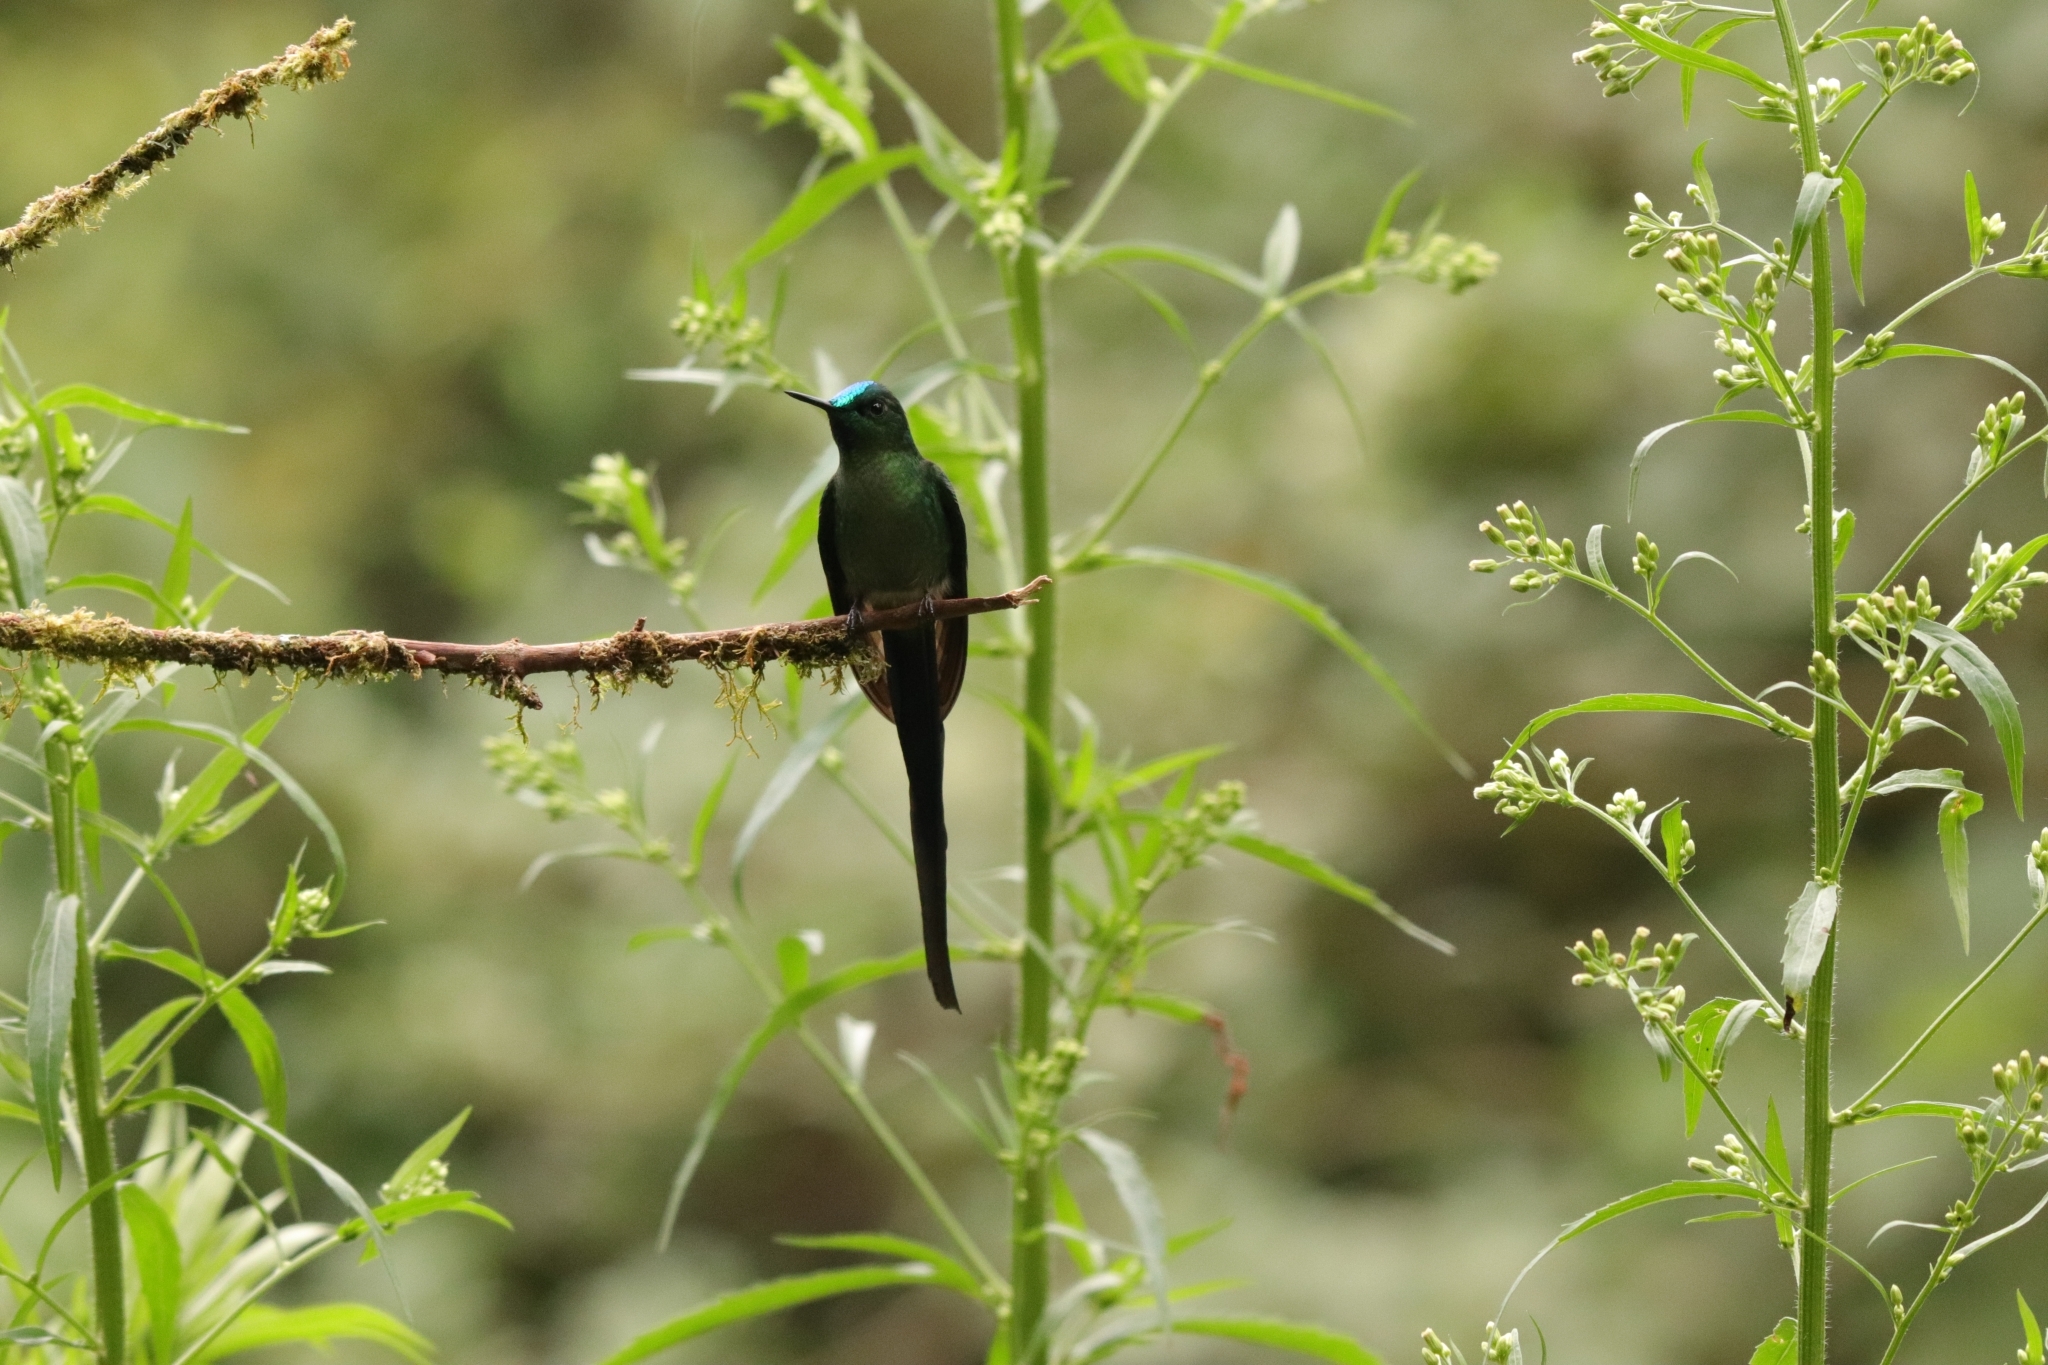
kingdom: Animalia
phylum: Chordata
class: Aves
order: Apodiformes
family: Trochilidae
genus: Aglaiocercus
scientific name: Aglaiocercus kingii
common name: Long-tailed sylph
